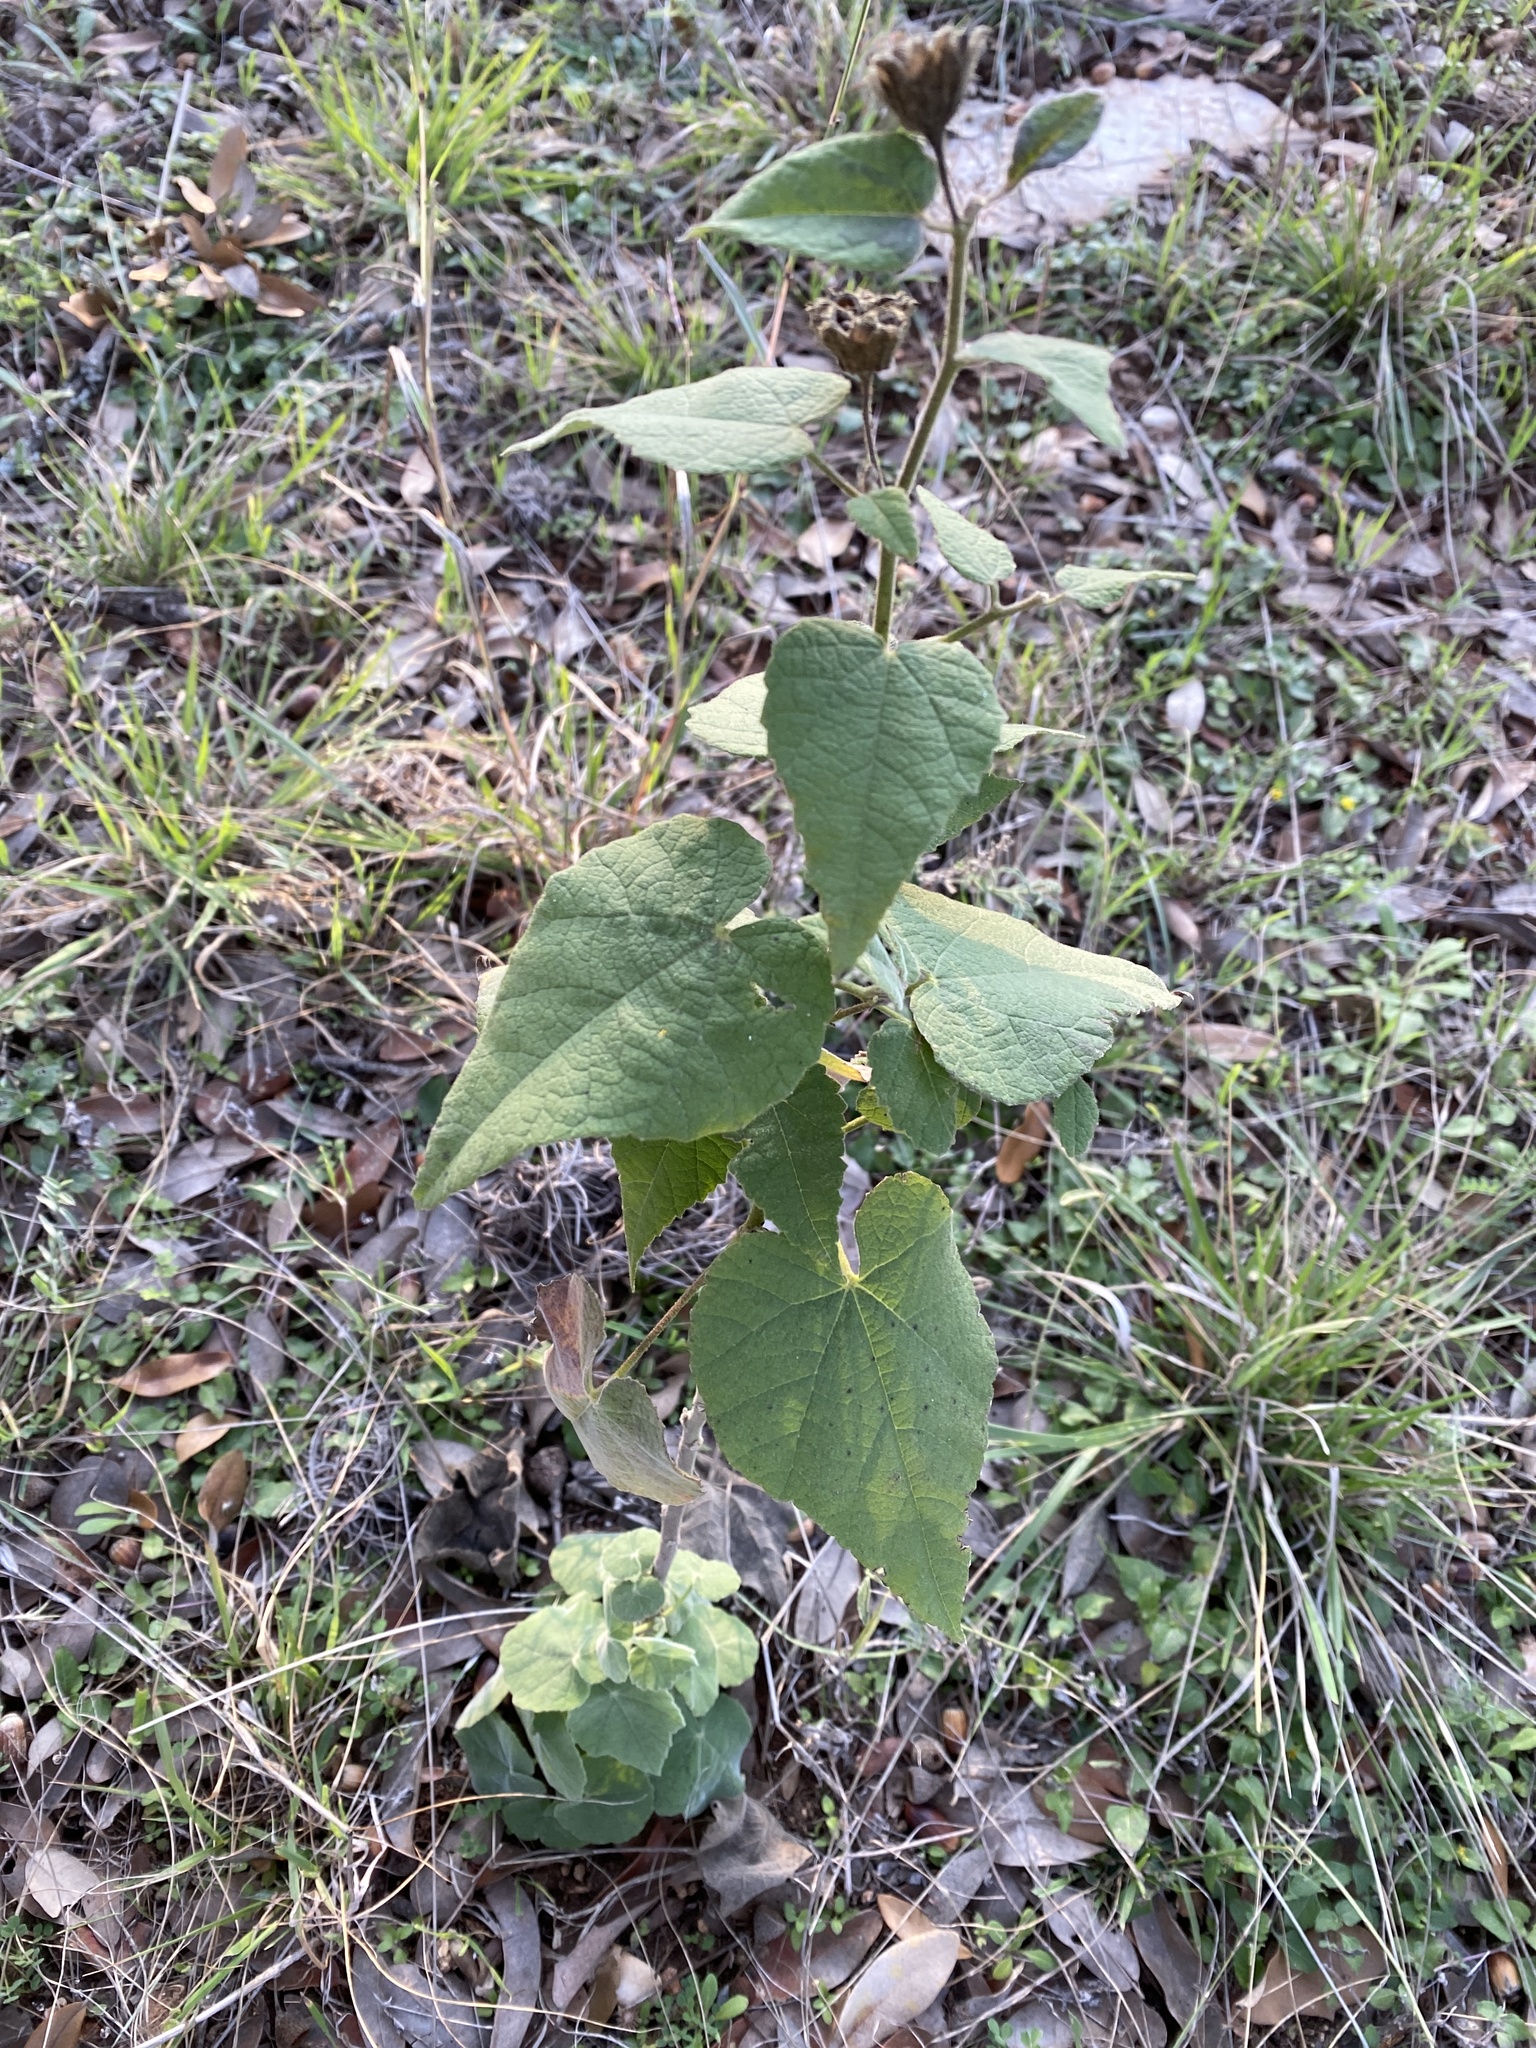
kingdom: Plantae
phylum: Tracheophyta
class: Magnoliopsida
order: Malvales
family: Malvaceae
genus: Allowissadula
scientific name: Allowissadula holosericea
